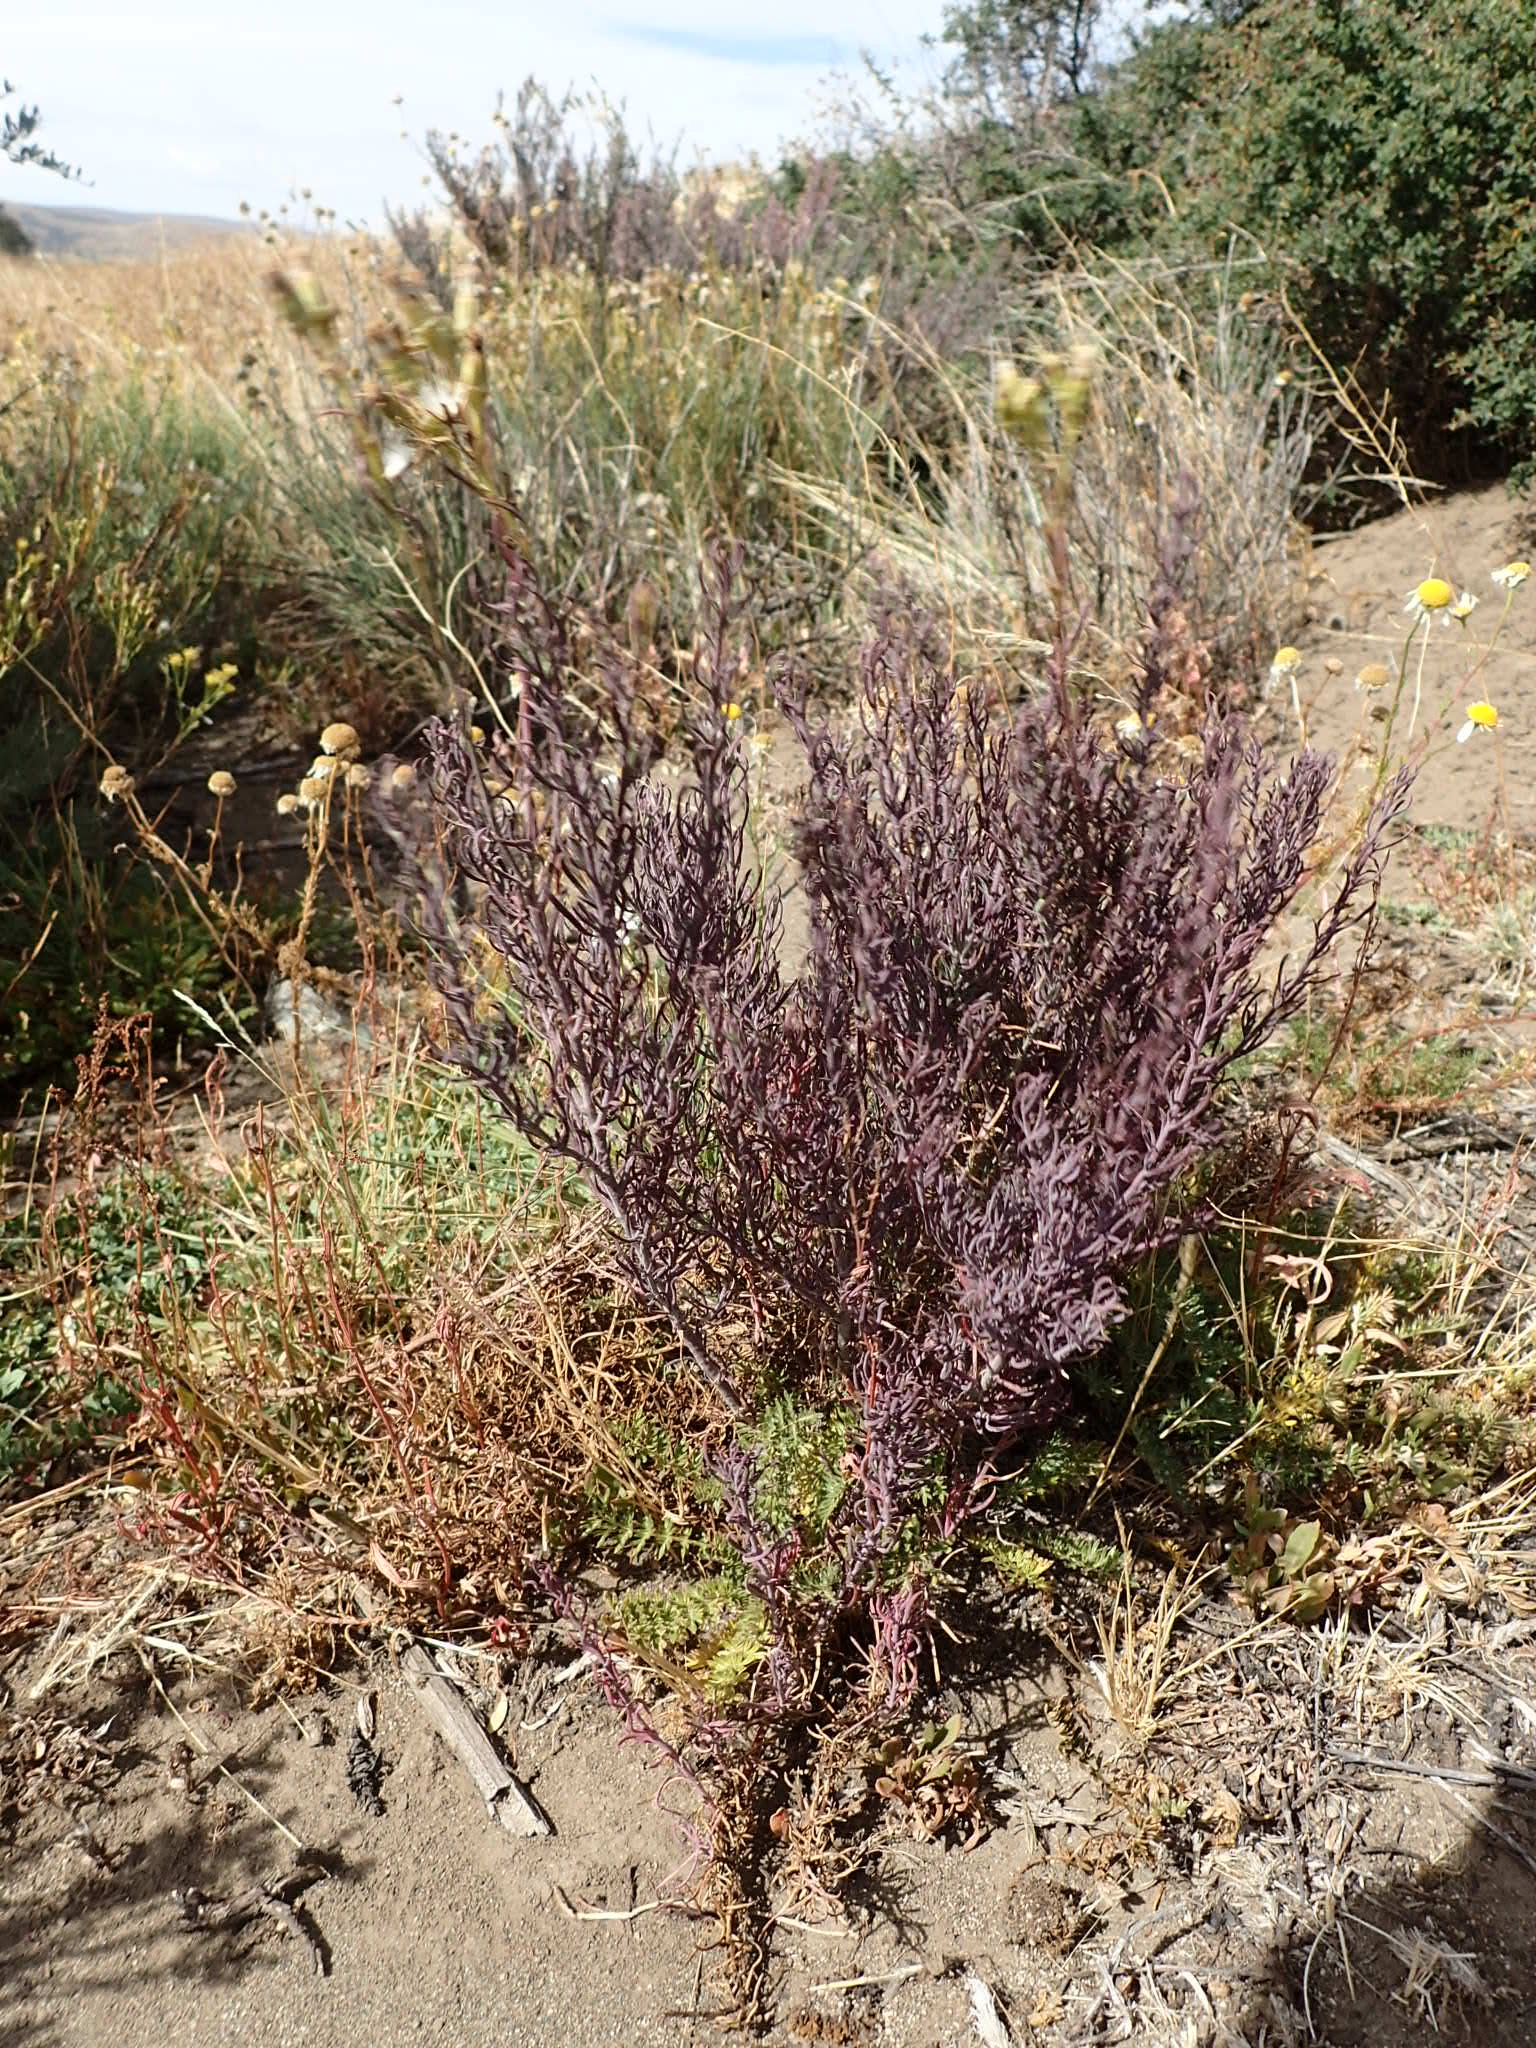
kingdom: Plantae
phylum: Tracheophyta
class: Magnoliopsida
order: Santalales
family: Schoepfiaceae
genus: Quinchamalium
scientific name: Quinchamalium chilense
